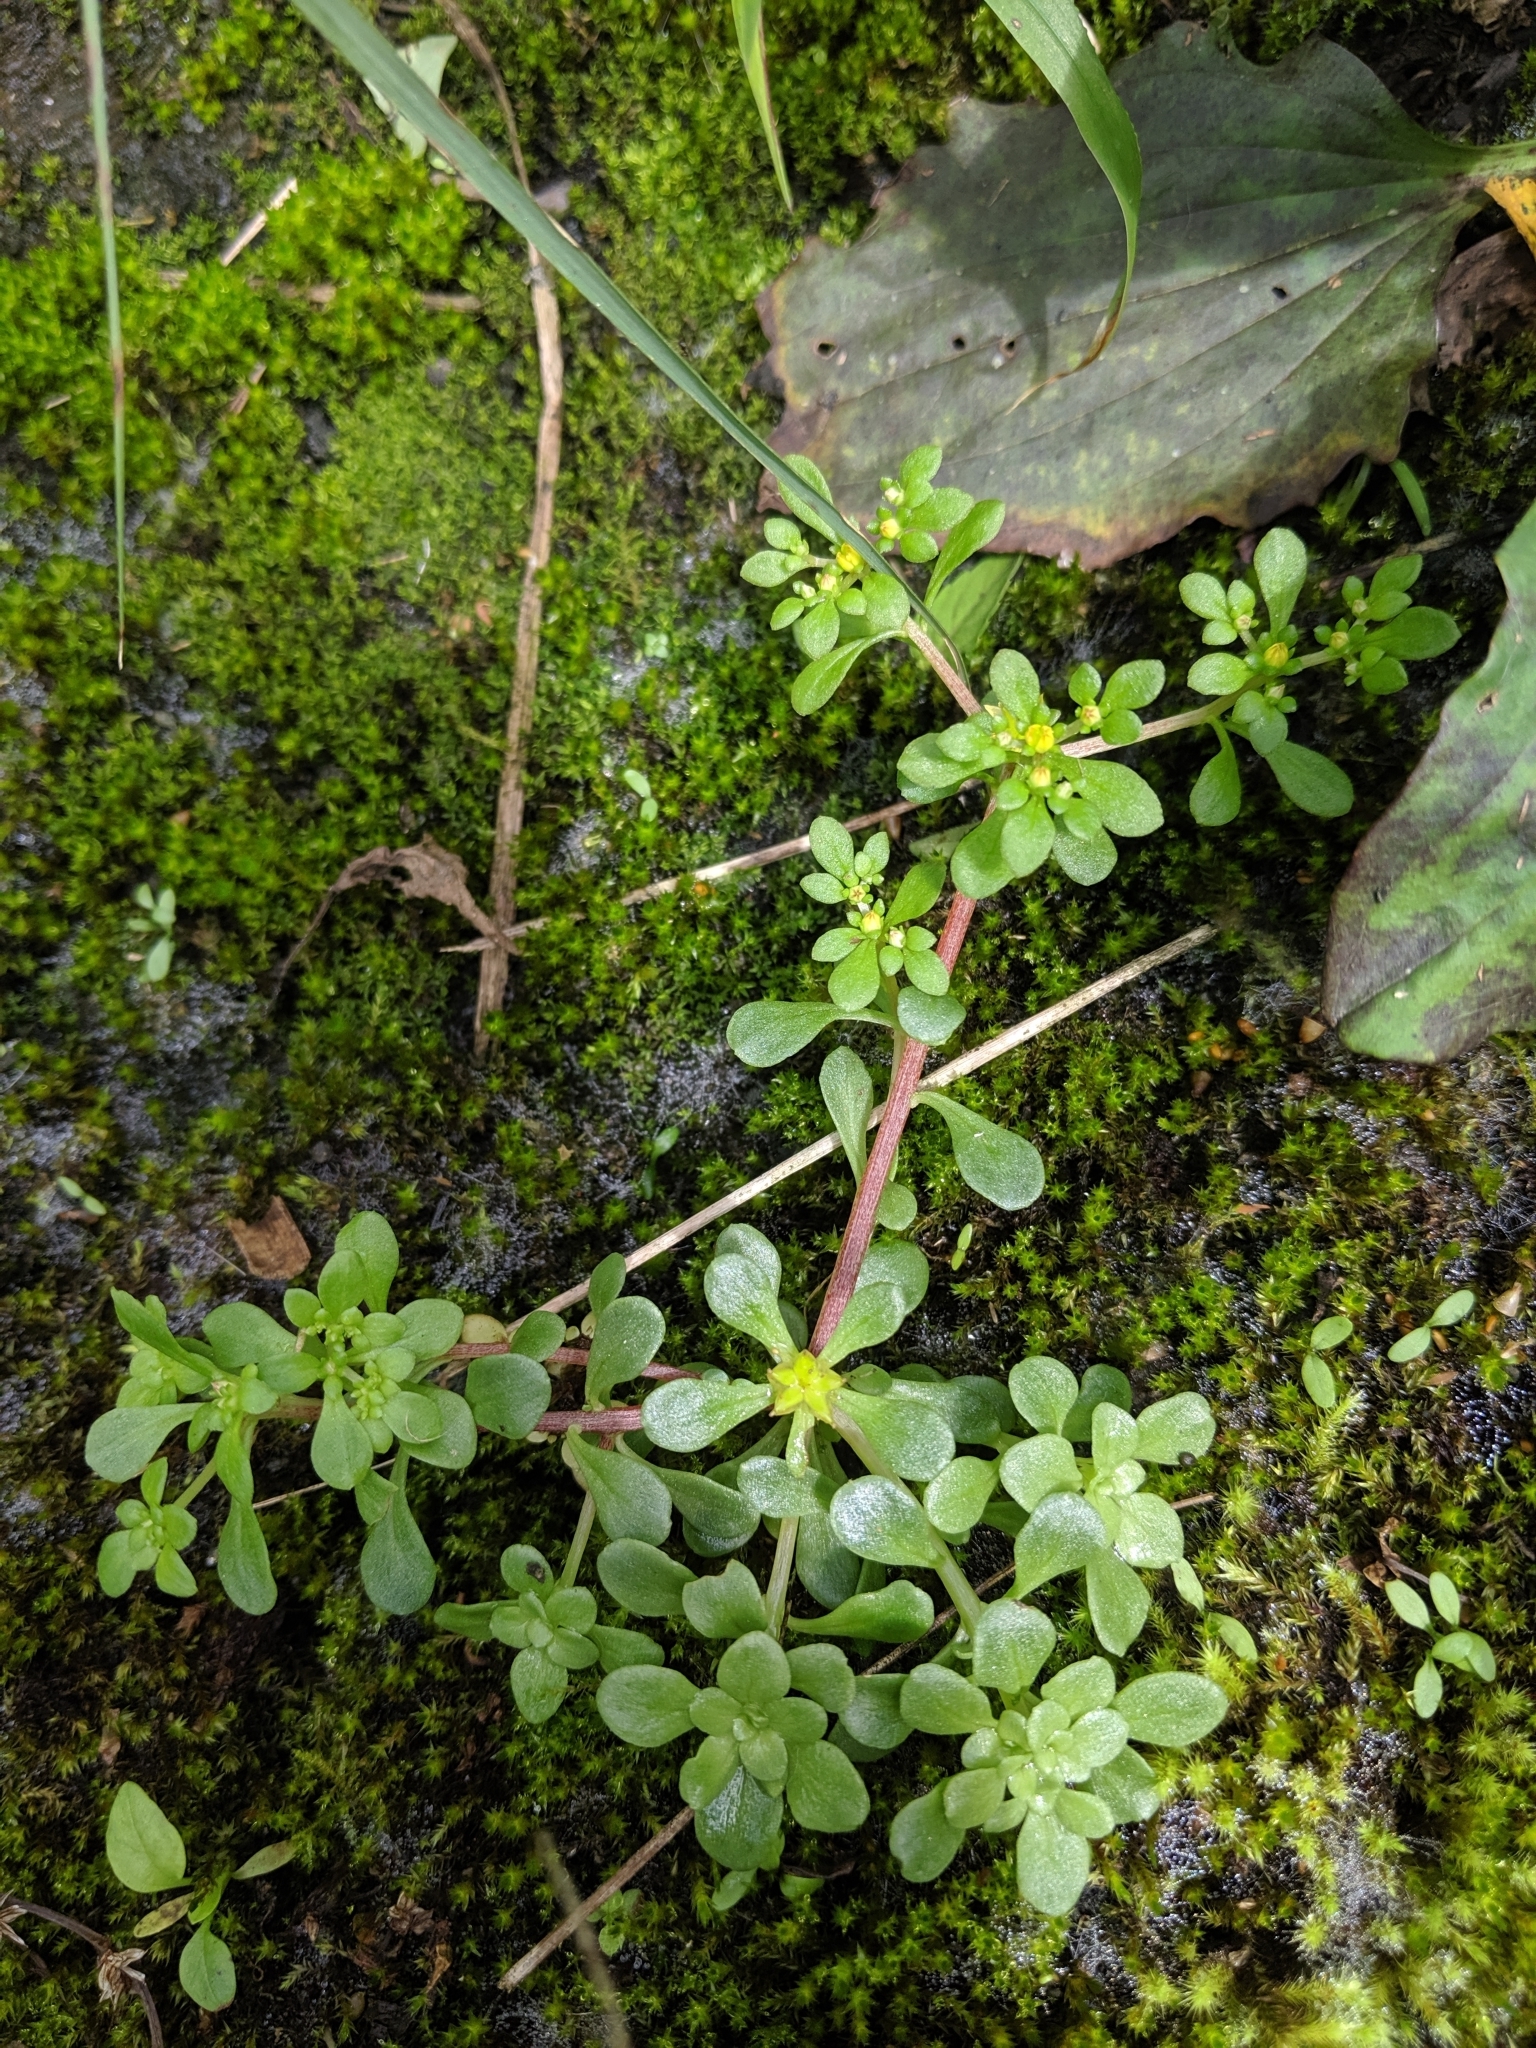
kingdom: Plantae
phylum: Tracheophyta
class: Magnoliopsida
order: Saxifragales
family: Crassulaceae
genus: Sedum
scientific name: Sedum actinocarpum
